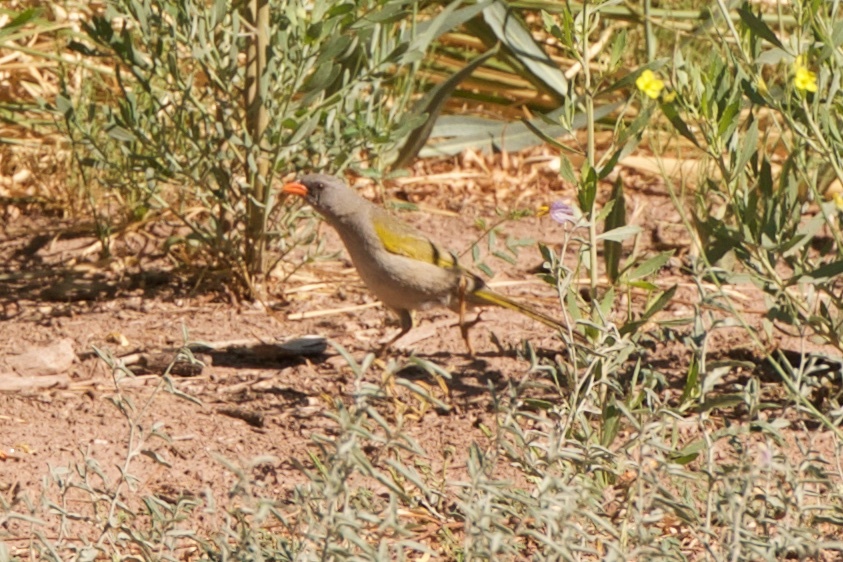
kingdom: Animalia
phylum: Chordata
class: Aves
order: Passeriformes
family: Thraupidae
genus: Embernagra
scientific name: Embernagra platensis
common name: Pampa finch
